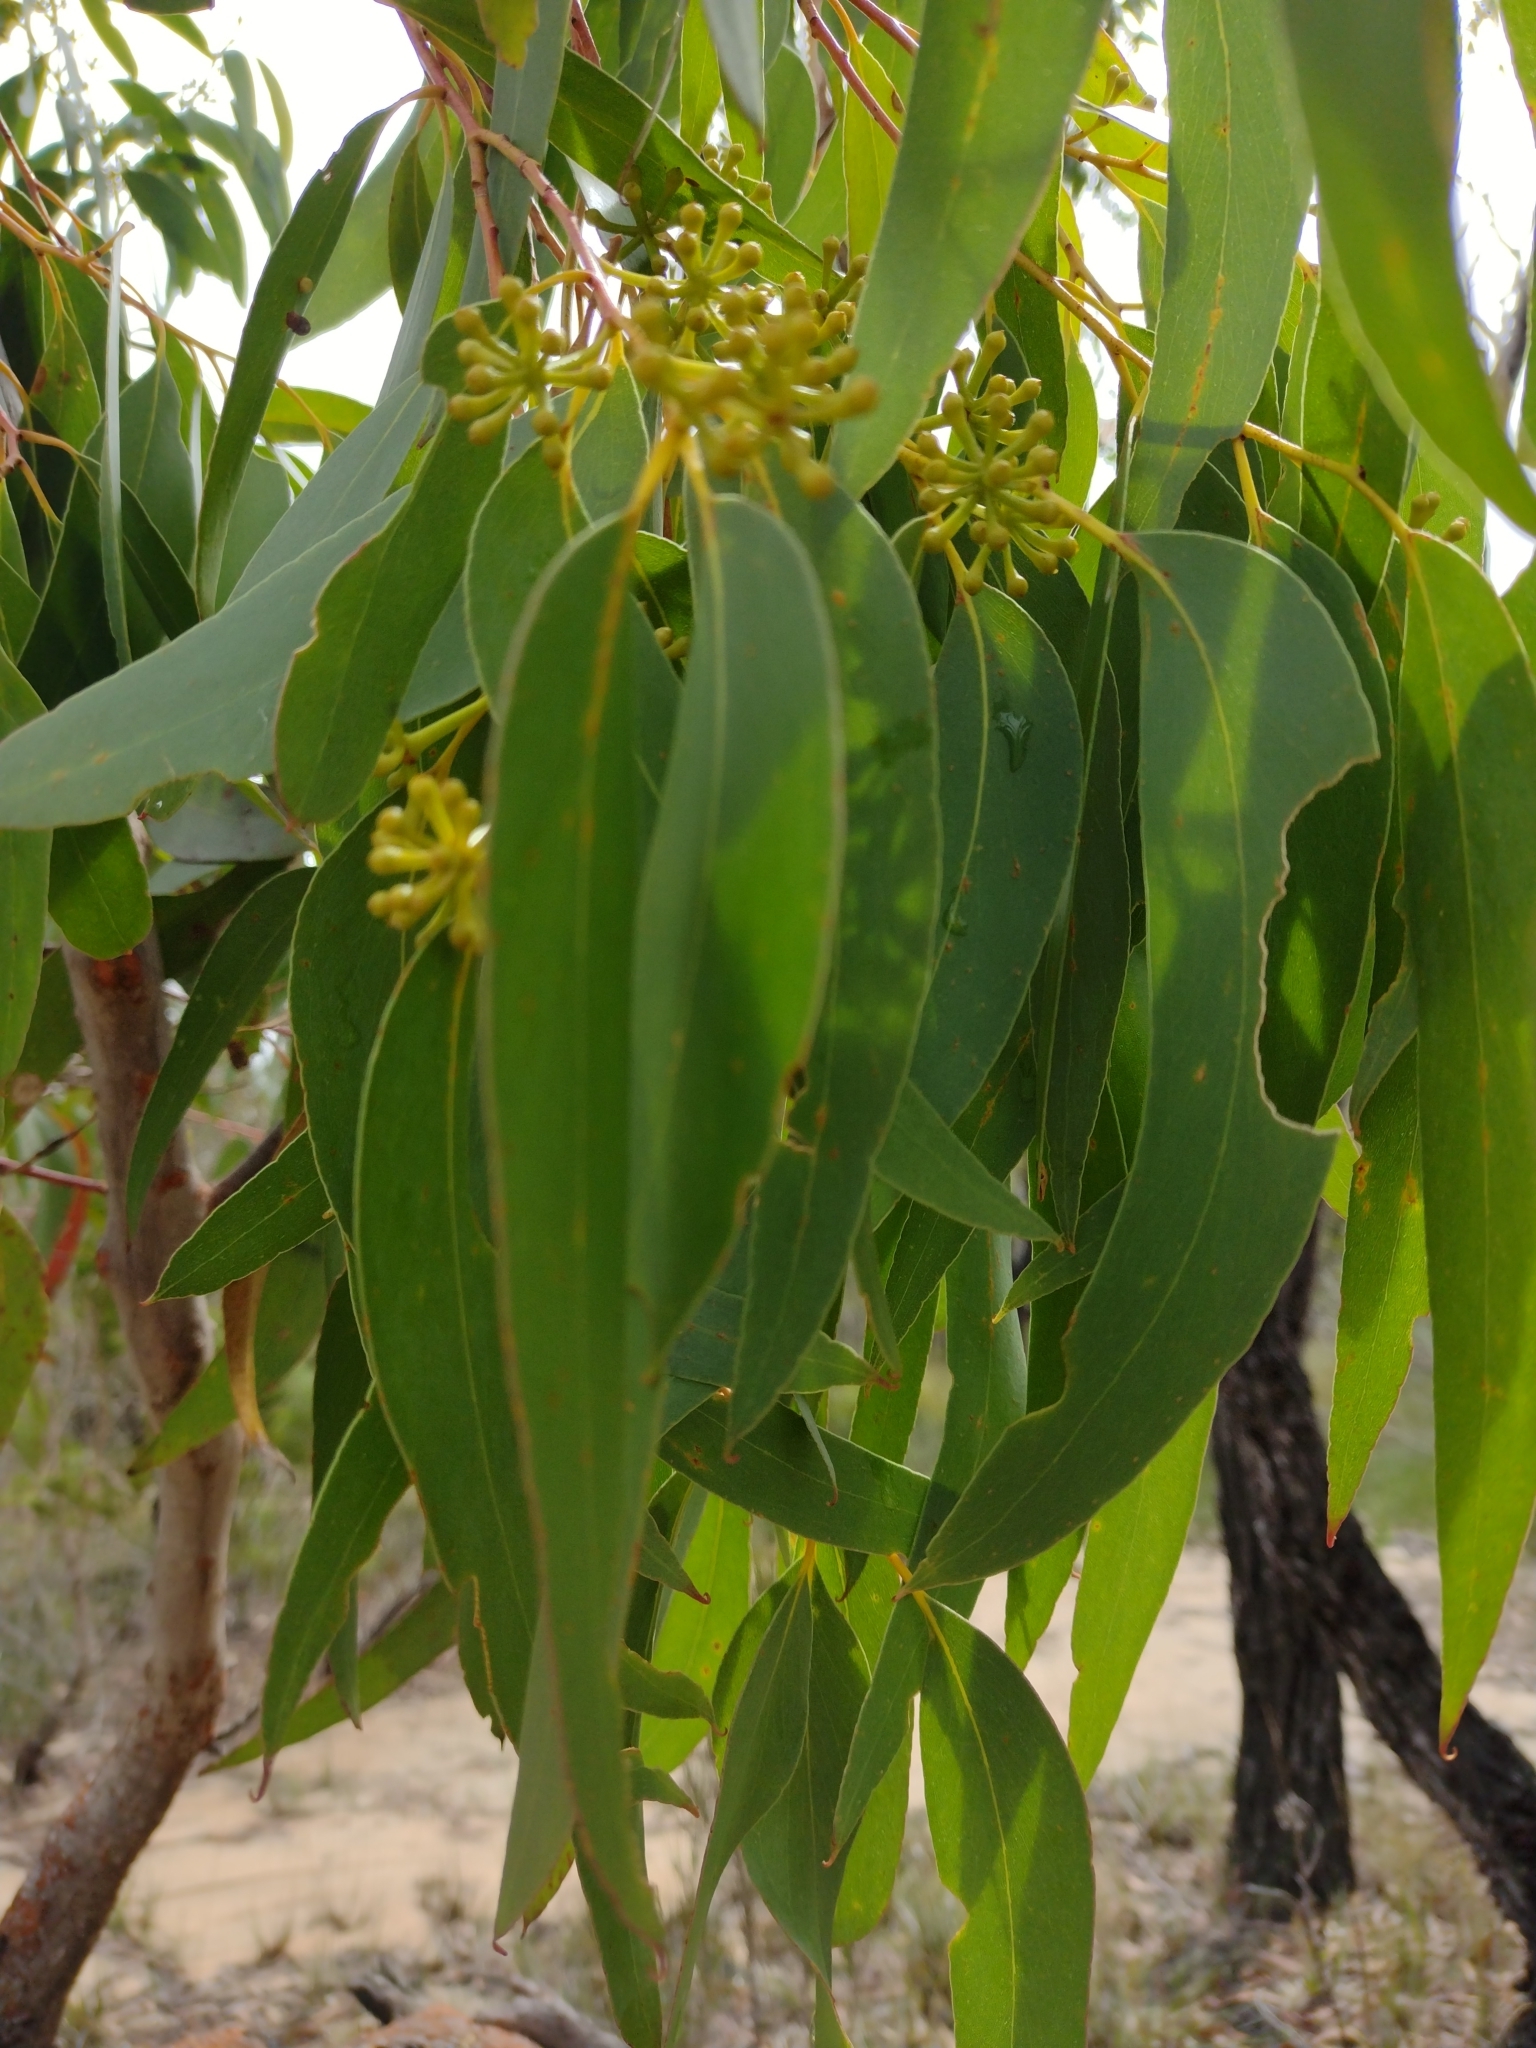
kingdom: Plantae
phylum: Tracheophyta
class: Magnoliopsida
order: Myrtales
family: Myrtaceae
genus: Eucalyptus
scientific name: Eucalyptus sieberi
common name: Black-ash
